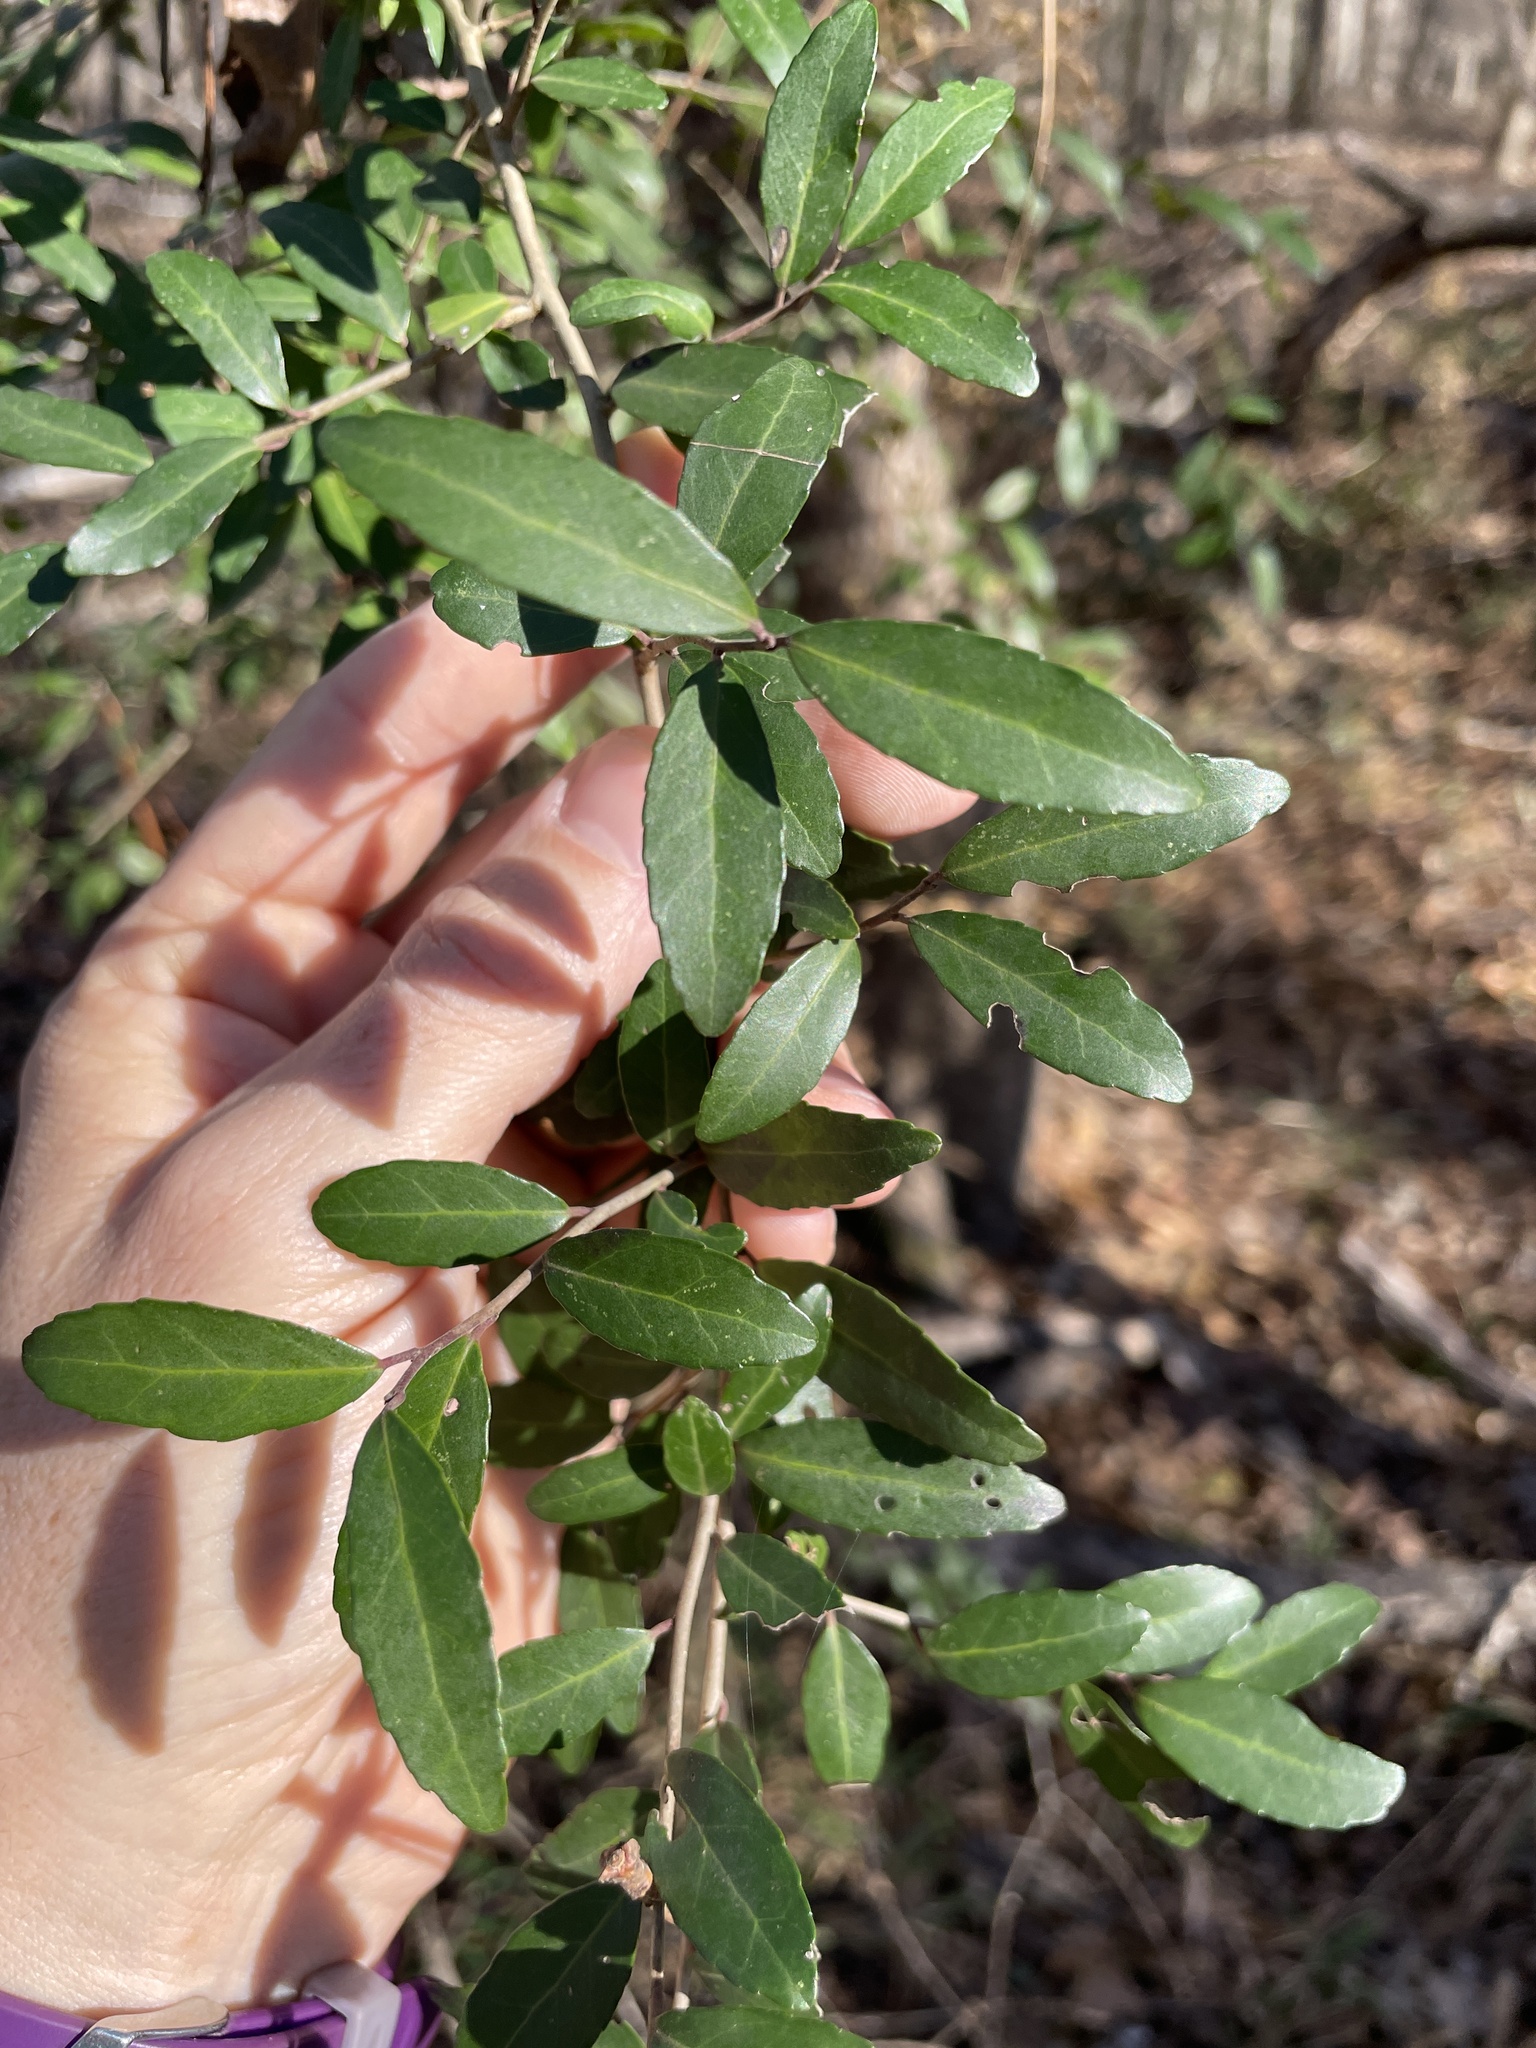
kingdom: Plantae
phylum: Tracheophyta
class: Magnoliopsida
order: Aquifoliales
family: Aquifoliaceae
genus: Ilex
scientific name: Ilex vomitoria
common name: Yaupon holly
